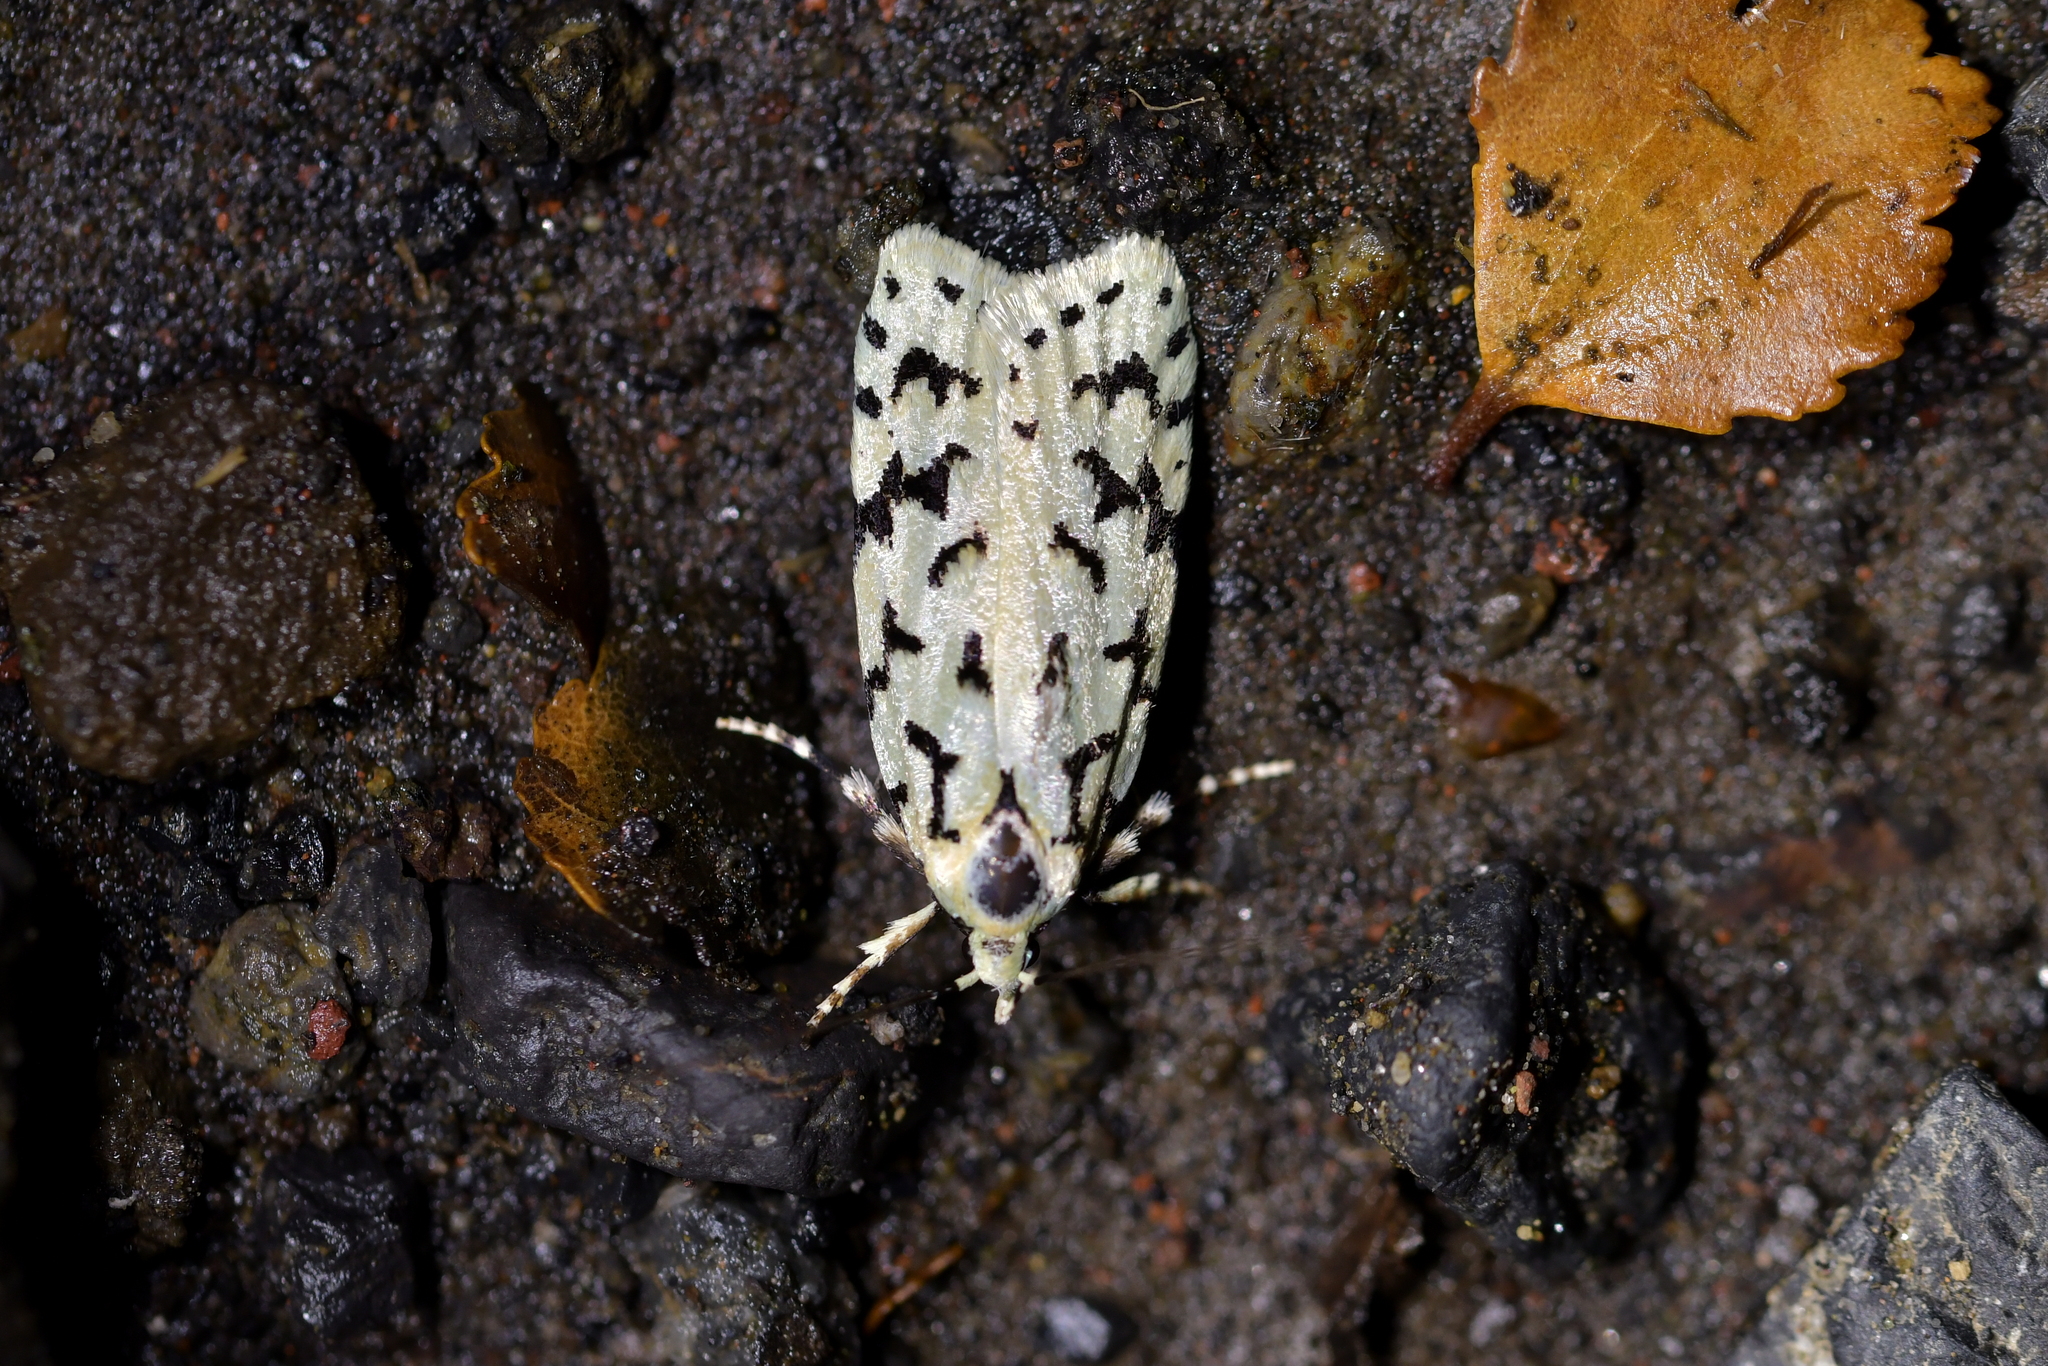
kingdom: Animalia
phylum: Arthropoda
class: Insecta
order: Lepidoptera
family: Oecophoridae
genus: Izatha
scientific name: Izatha peroneanella
